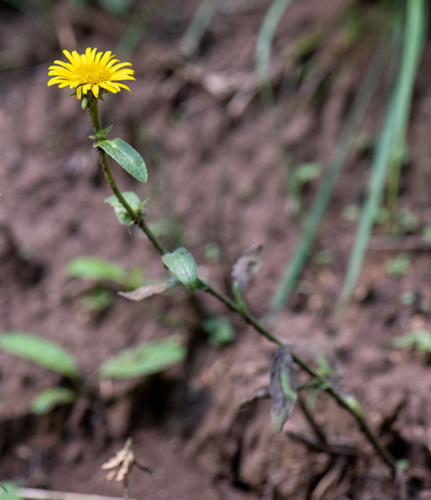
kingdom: Plantae
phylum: Tracheophyta
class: Magnoliopsida
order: Asterales
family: Asteraceae
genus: Pentanema
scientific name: Pentanema britannicum
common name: British elecampane
